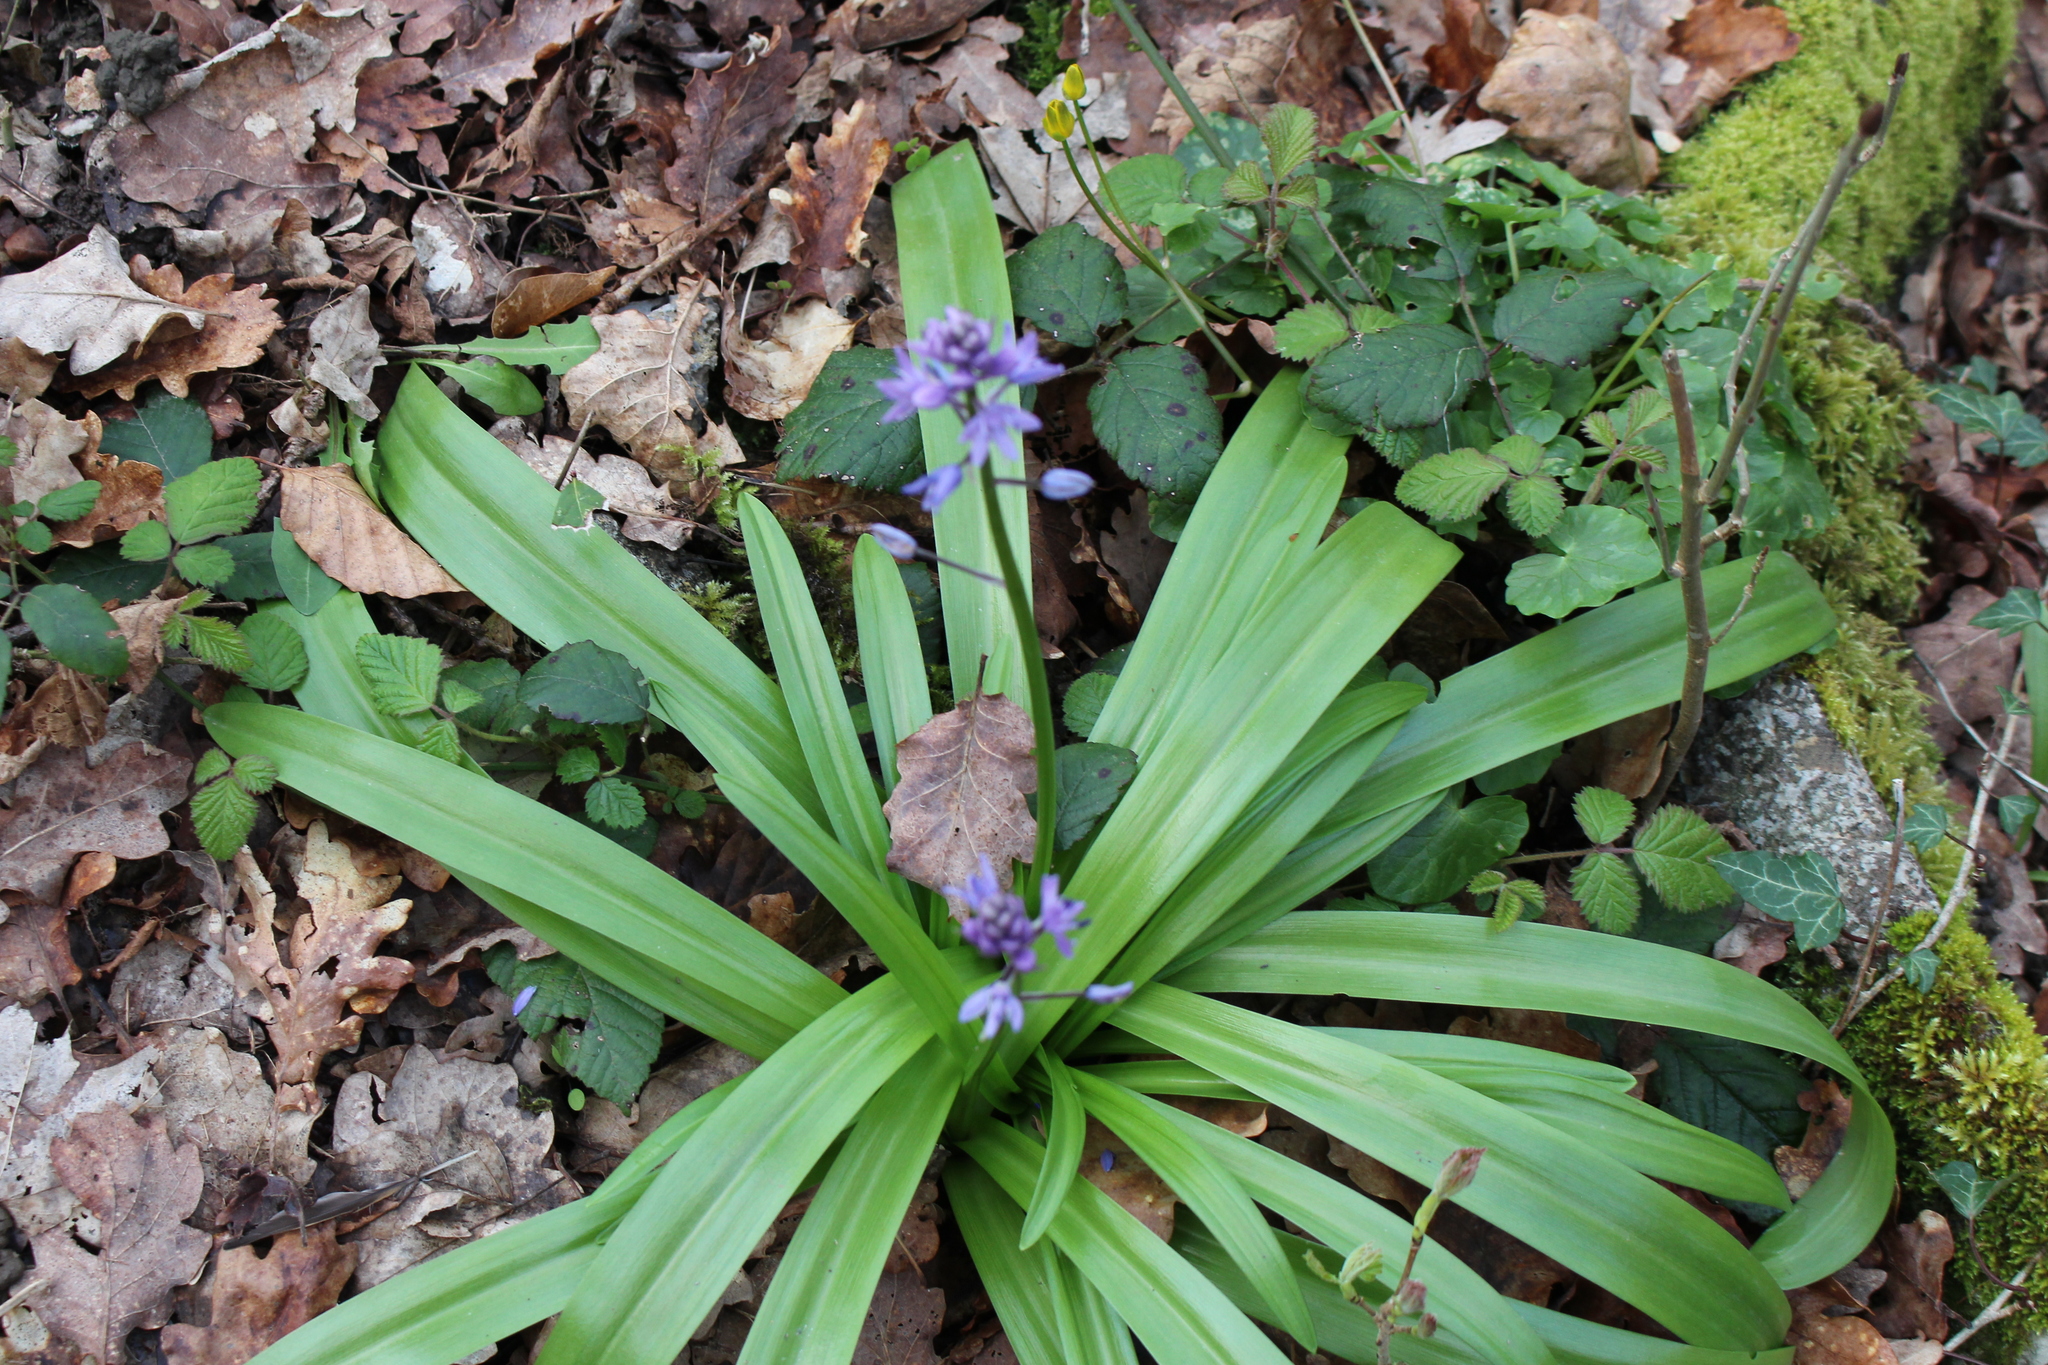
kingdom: Plantae
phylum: Tracheophyta
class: Liliopsida
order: Asparagales
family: Asparagaceae
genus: Scilla
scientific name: Scilla lilio-hyacinthus
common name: Pyrenean squill
